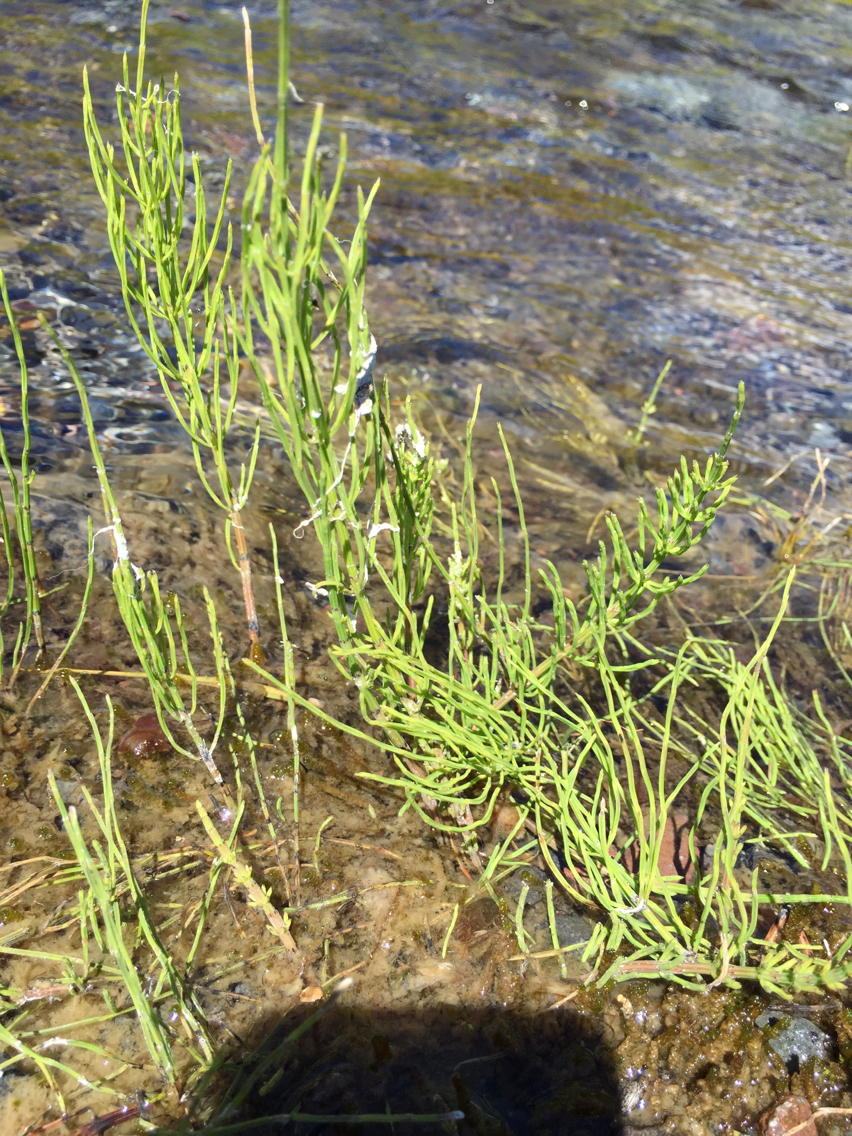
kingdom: Plantae
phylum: Tracheophyta
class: Polypodiopsida
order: Equisetales
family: Equisetaceae
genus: Equisetum
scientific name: Equisetum arvense
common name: Field horsetail
